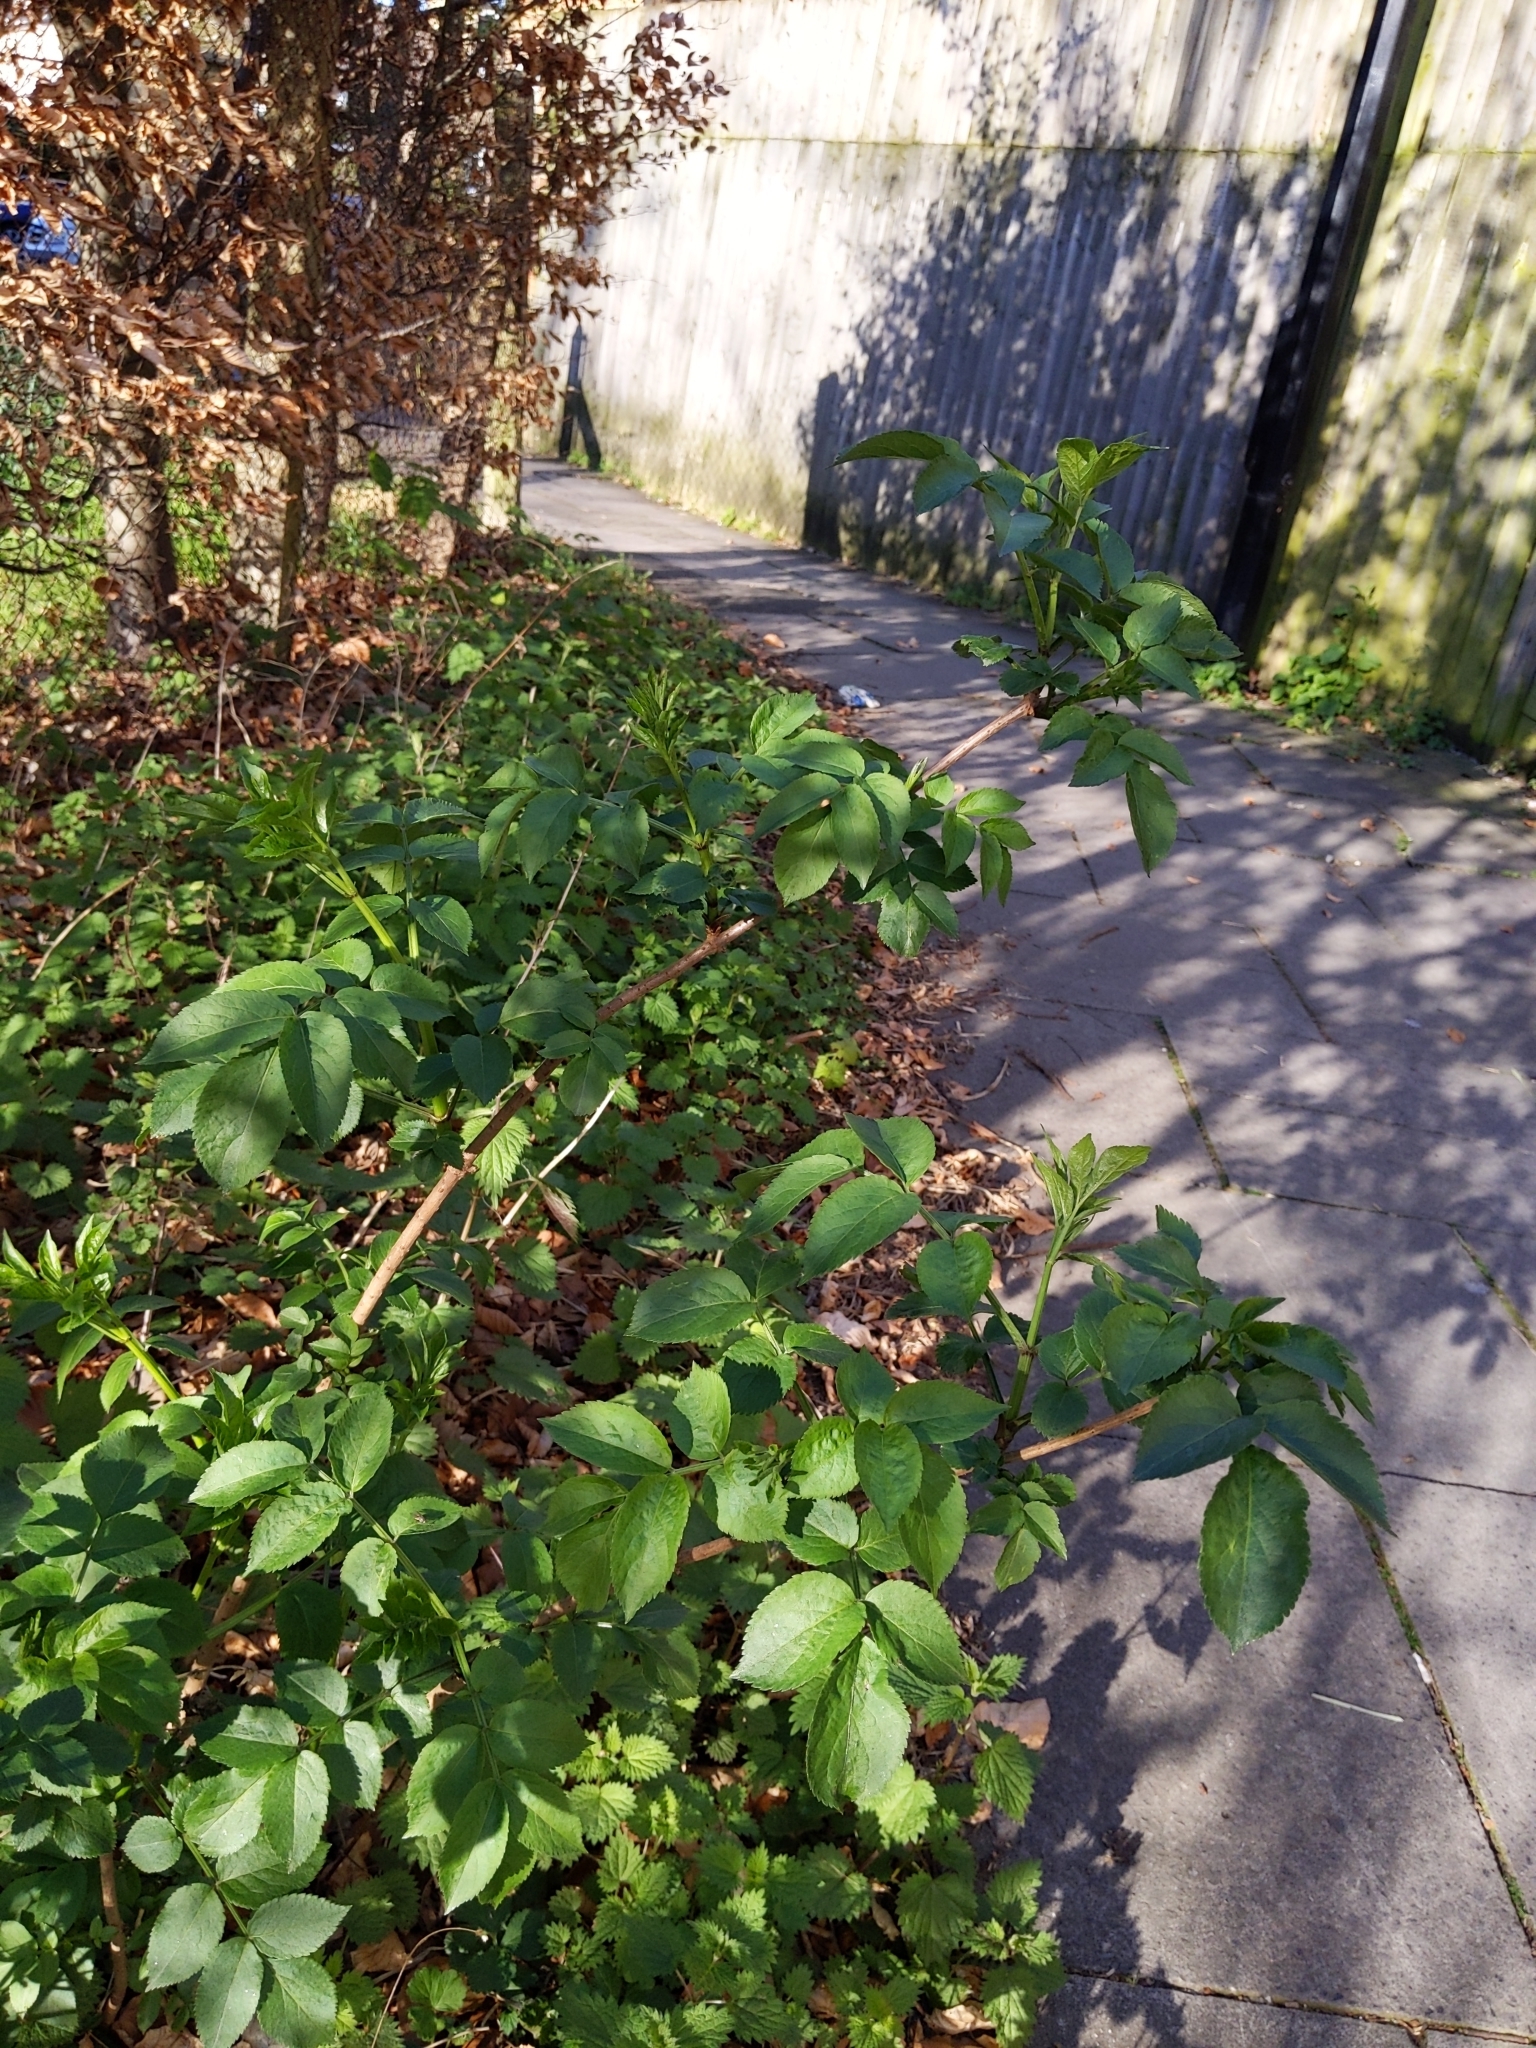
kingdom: Plantae
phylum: Tracheophyta
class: Magnoliopsida
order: Dipsacales
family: Viburnaceae
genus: Sambucus
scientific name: Sambucus nigra
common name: Elder
